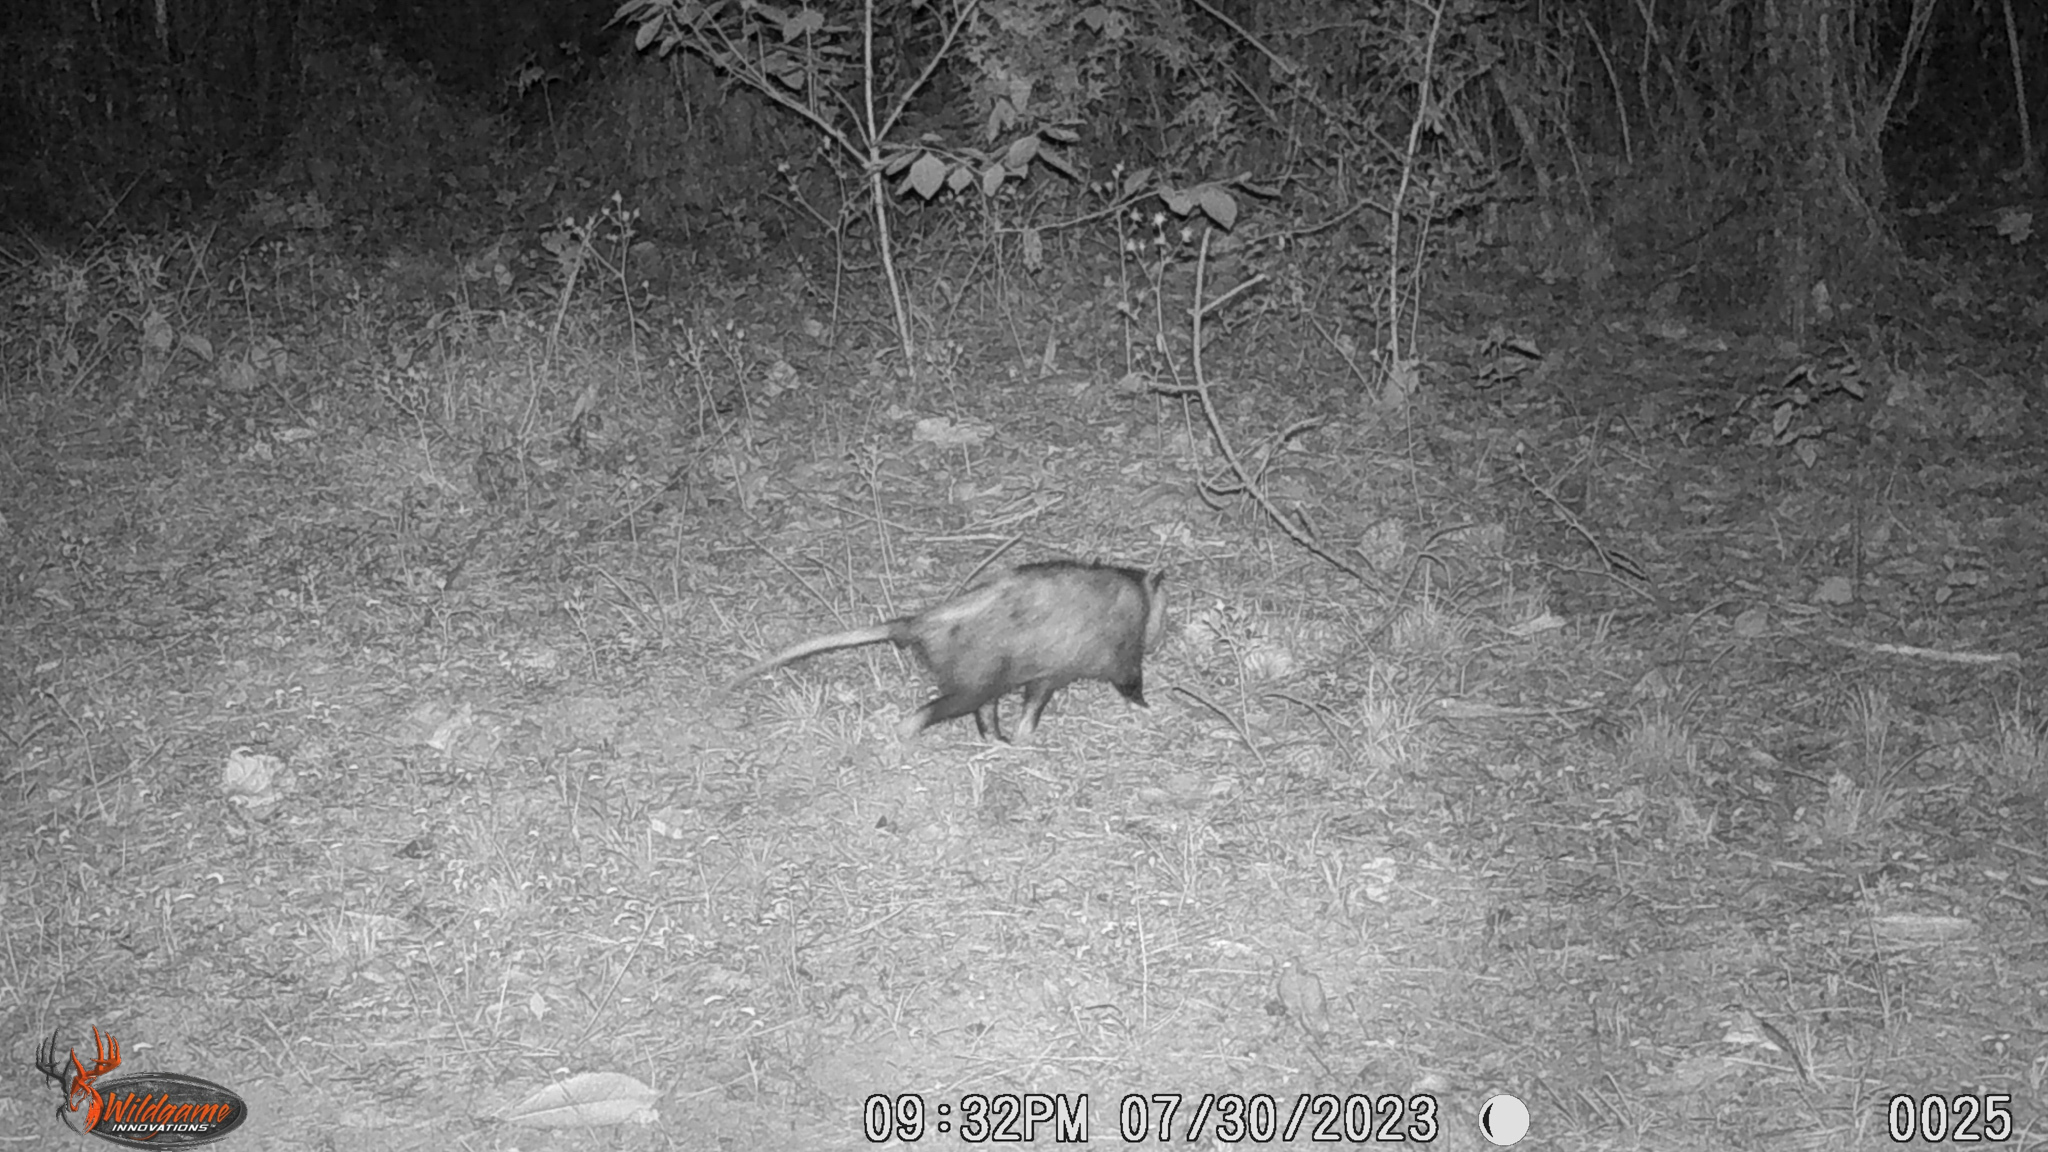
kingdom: Animalia
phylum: Chordata
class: Mammalia
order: Didelphimorphia
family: Didelphidae
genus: Didelphis
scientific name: Didelphis virginiana
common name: Virginia opossum
